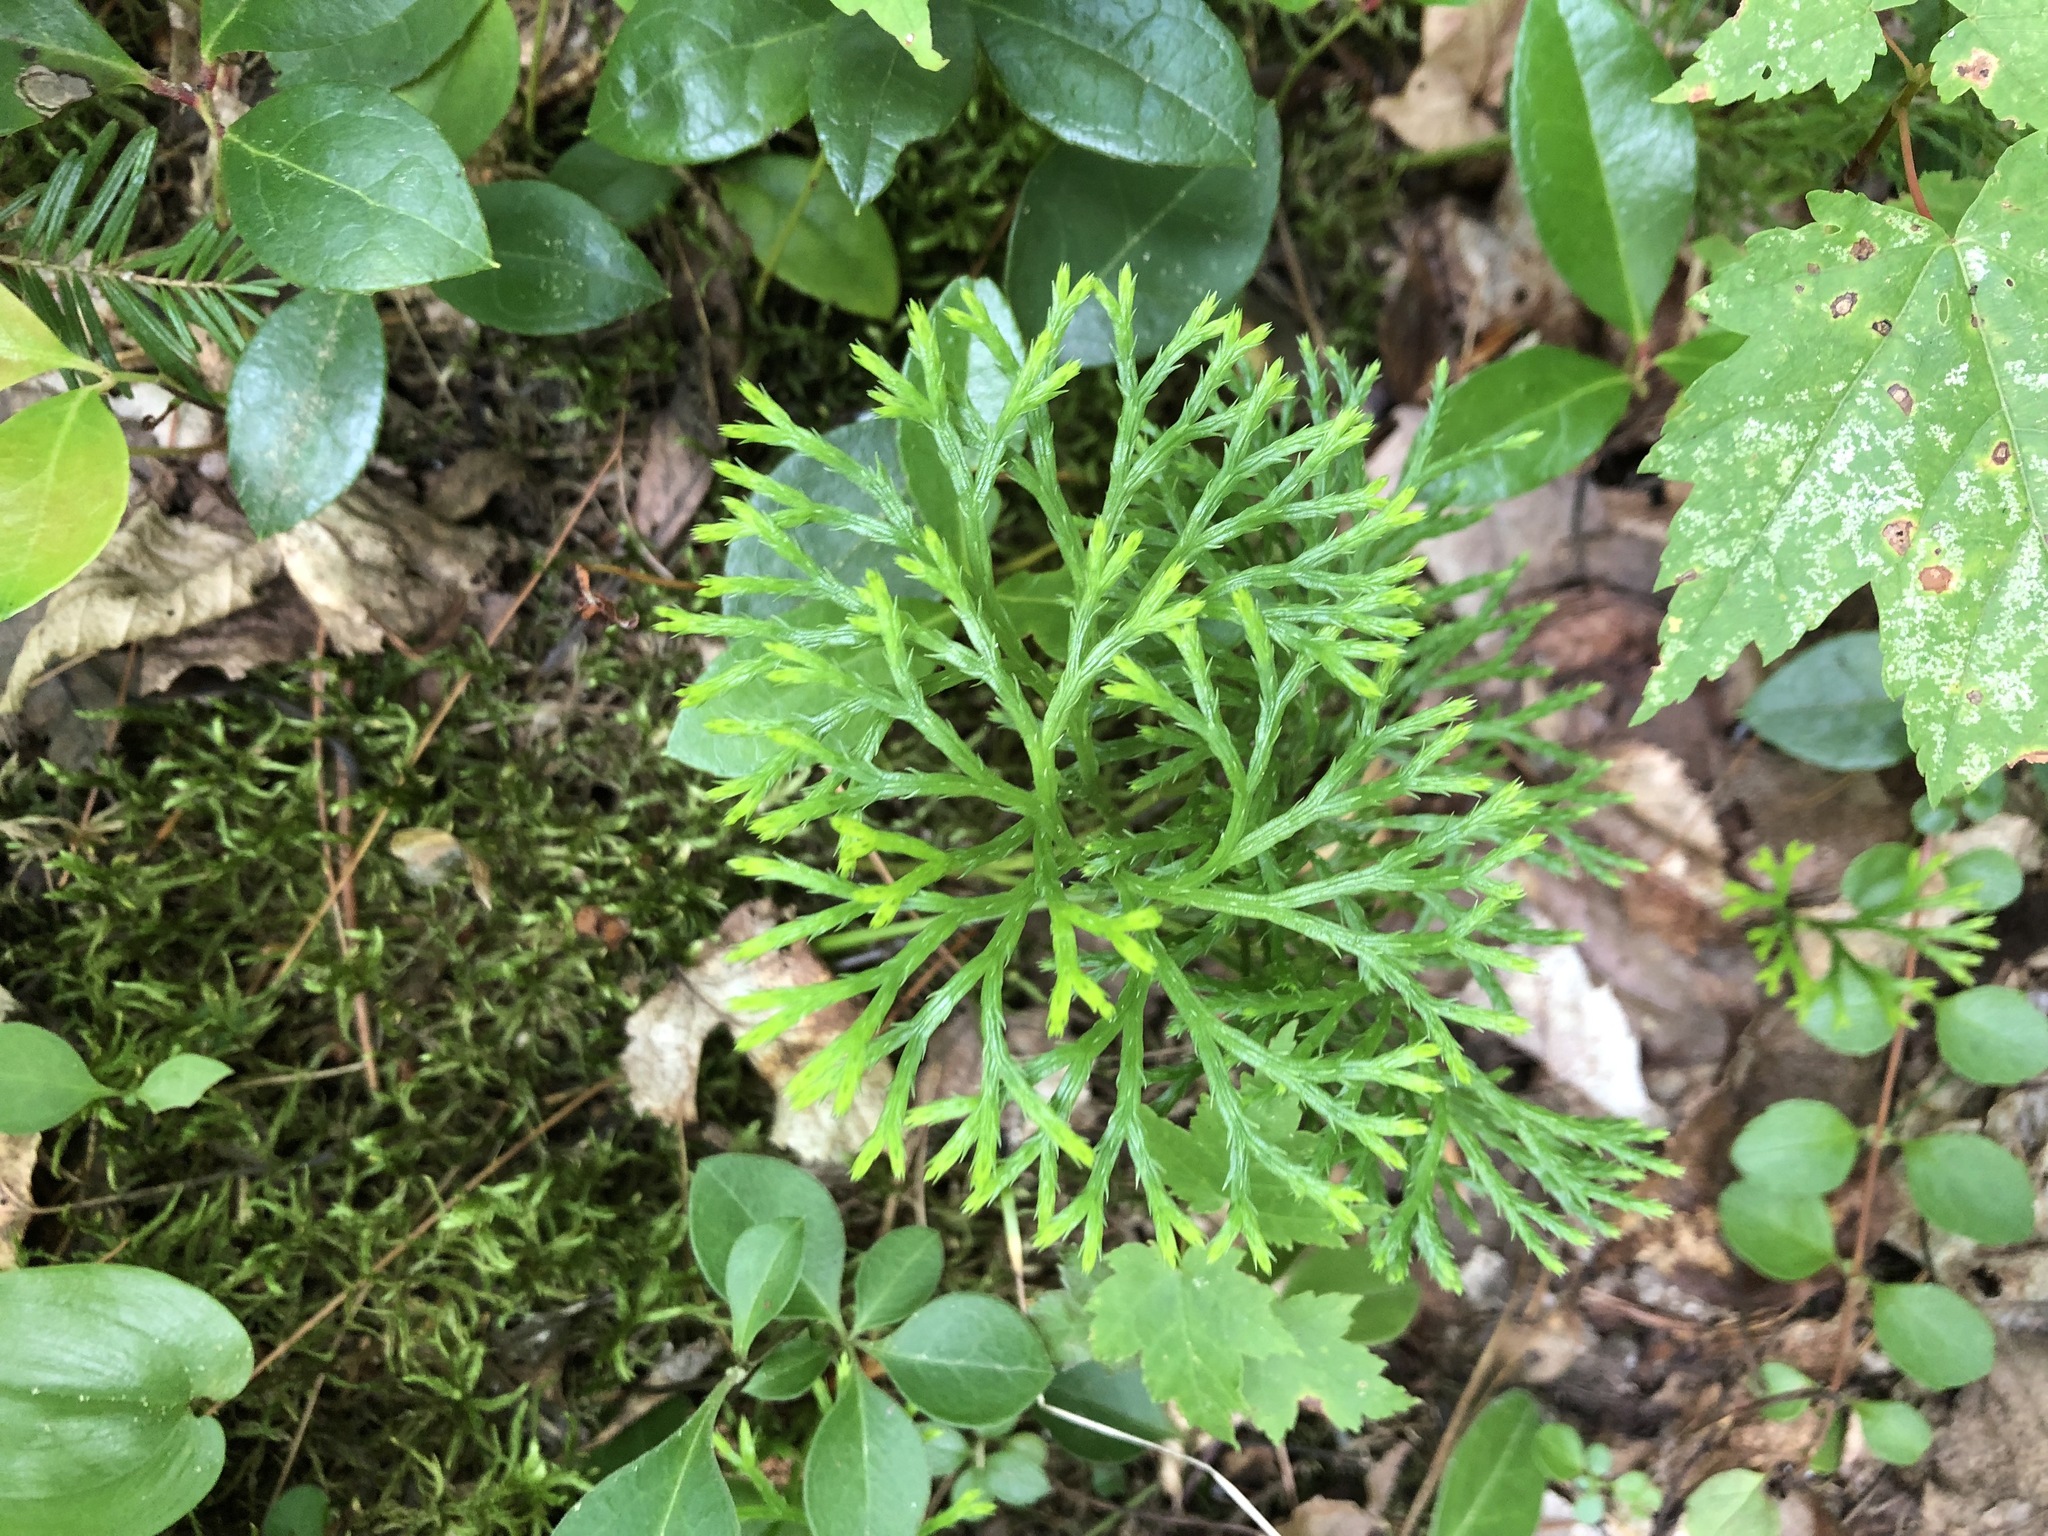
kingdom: Plantae
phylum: Tracheophyta
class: Lycopodiopsida
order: Lycopodiales
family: Lycopodiaceae
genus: Diphasiastrum
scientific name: Diphasiastrum digitatum
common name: Southern running-pine
